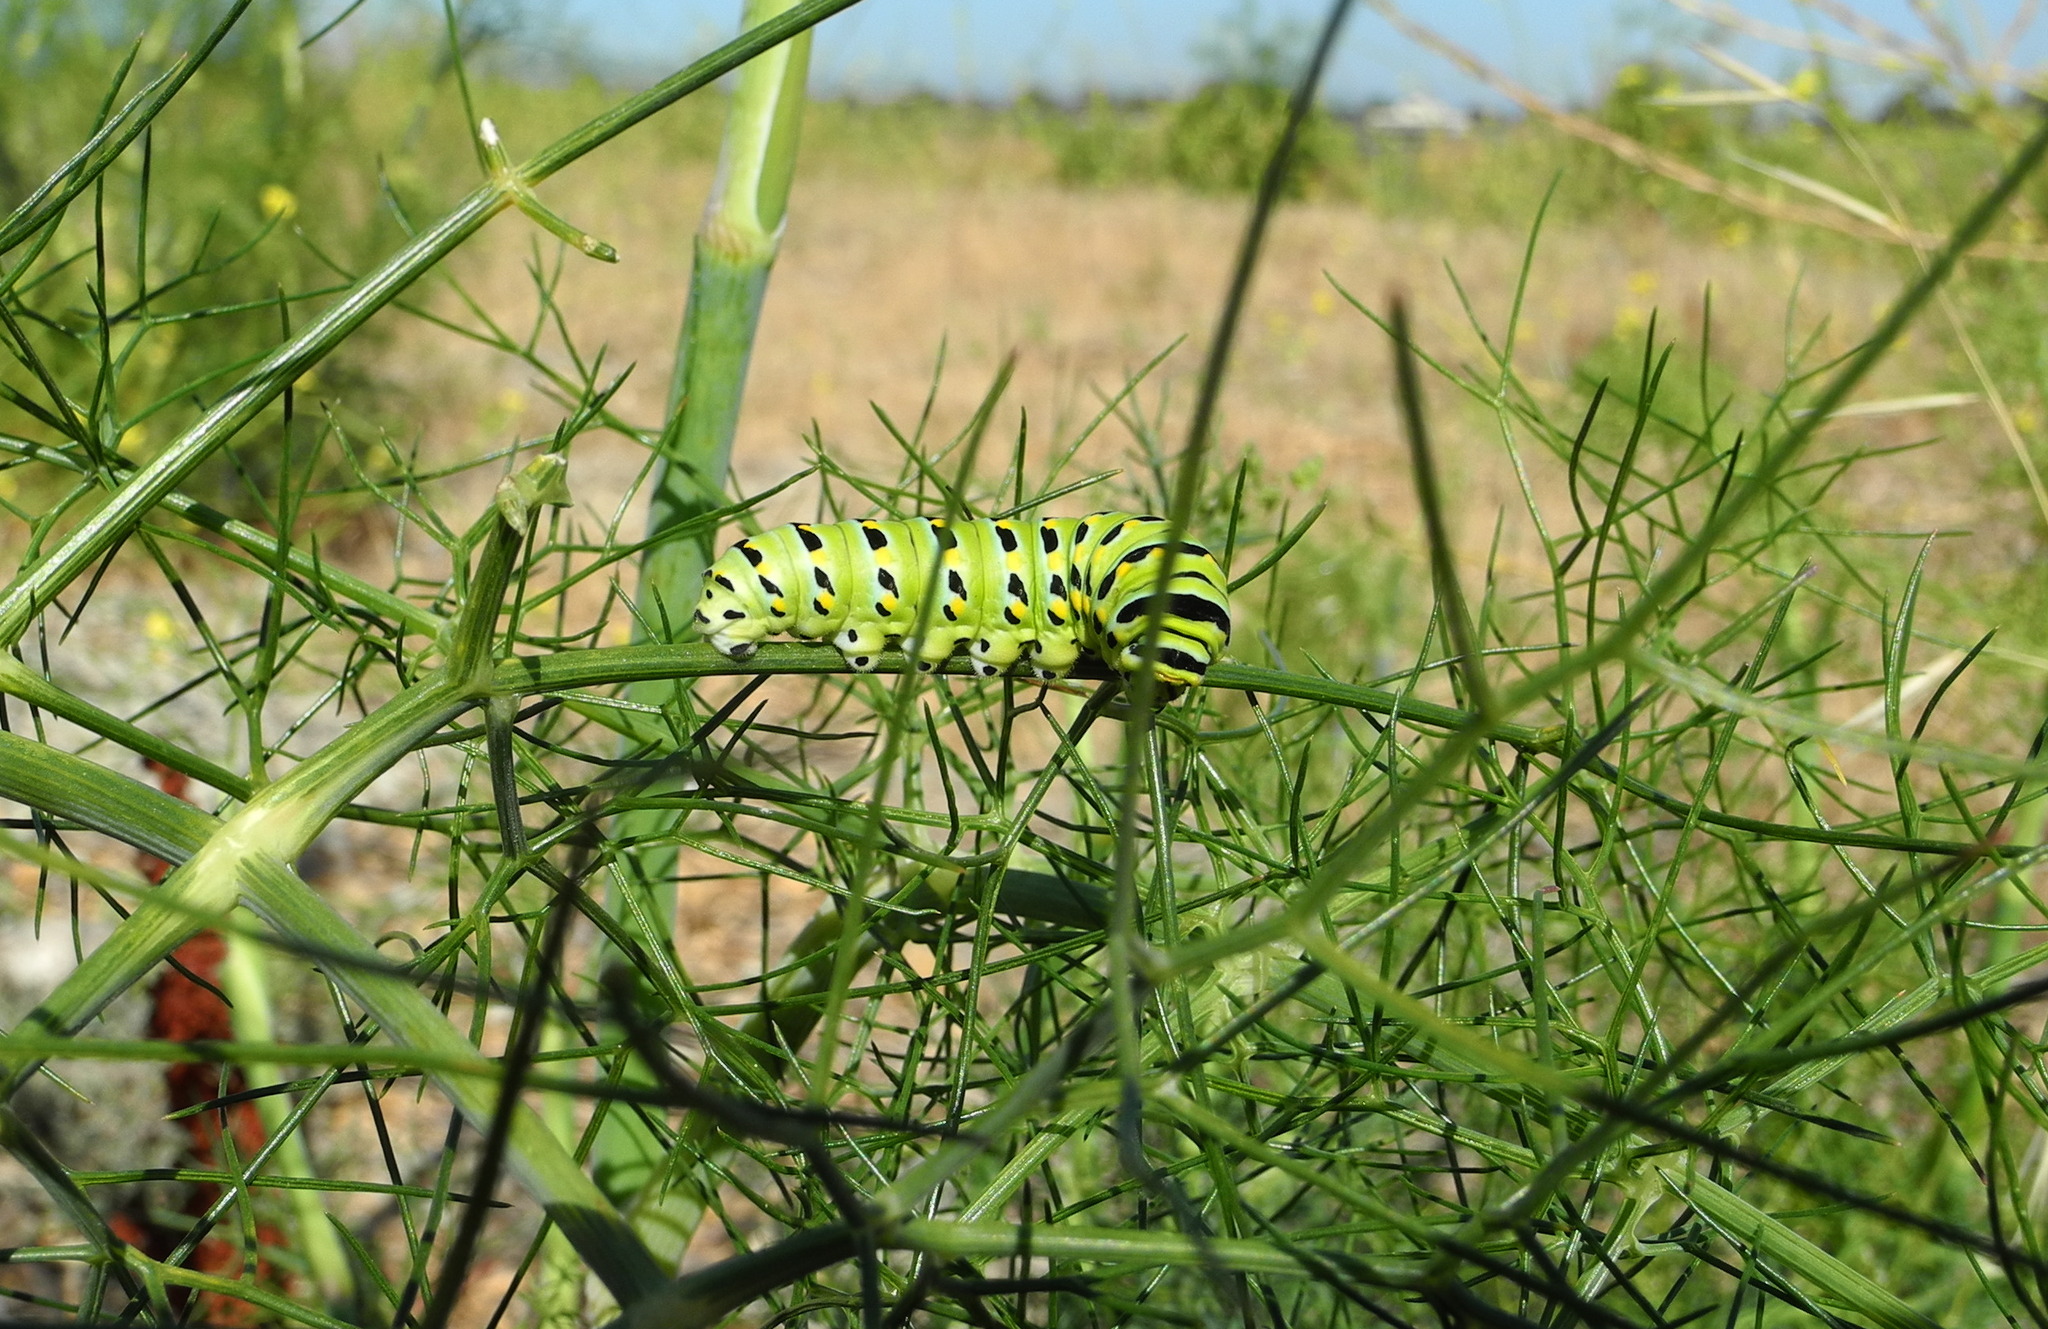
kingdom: Animalia
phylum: Arthropoda
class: Insecta
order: Lepidoptera
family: Papilionidae
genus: Papilio
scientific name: Papilio zelicaon
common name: Anise swallowtail
